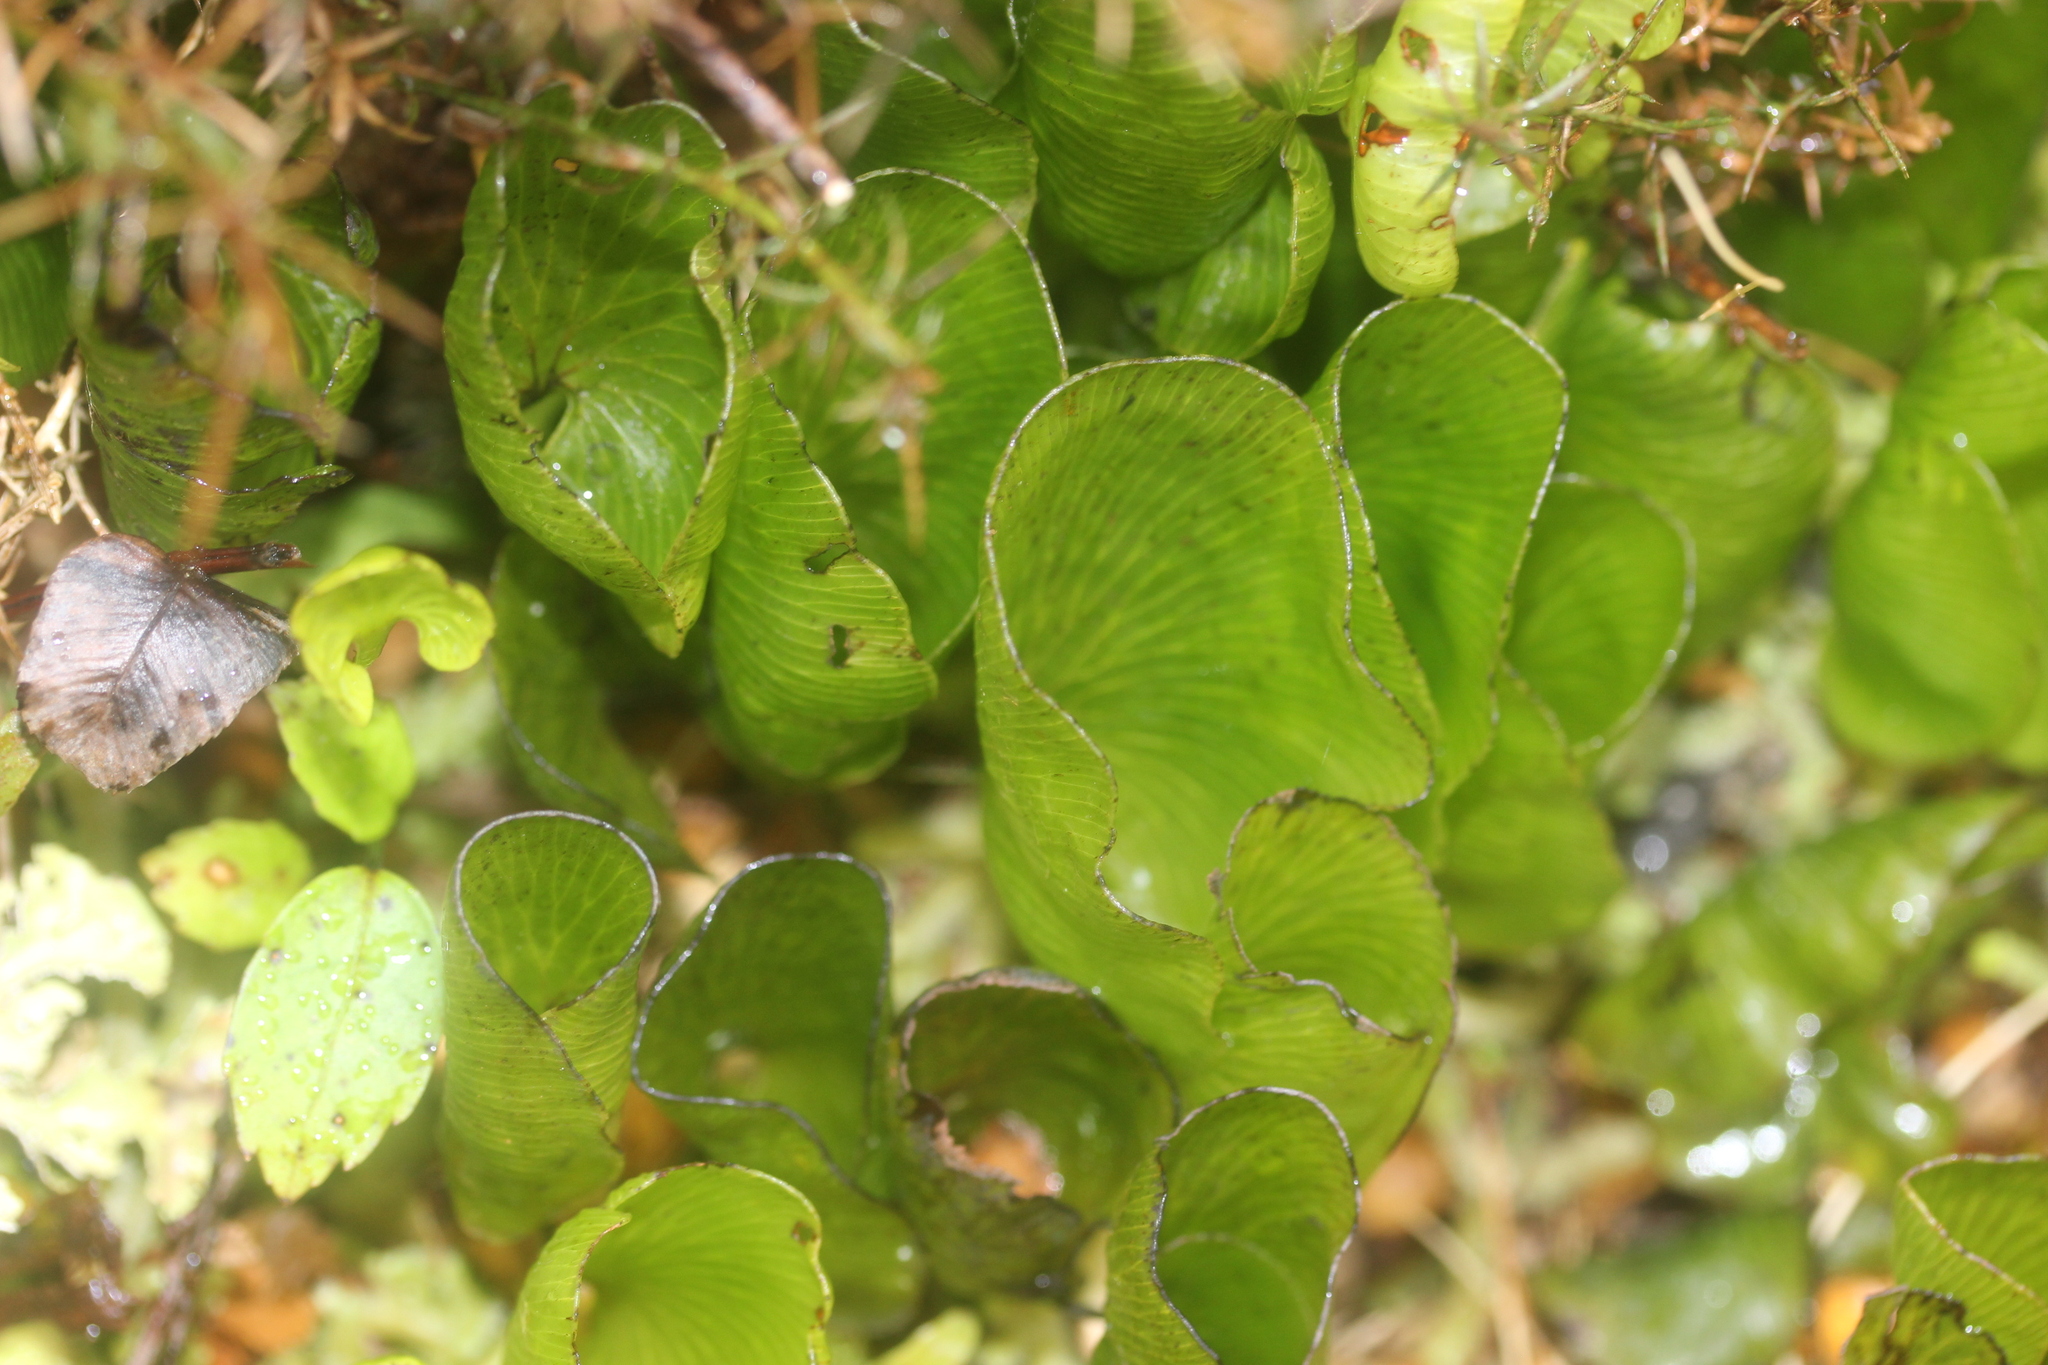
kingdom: Plantae
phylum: Tracheophyta
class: Polypodiopsida
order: Hymenophyllales
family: Hymenophyllaceae
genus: Hymenophyllum
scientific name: Hymenophyllum nephrophyllum
